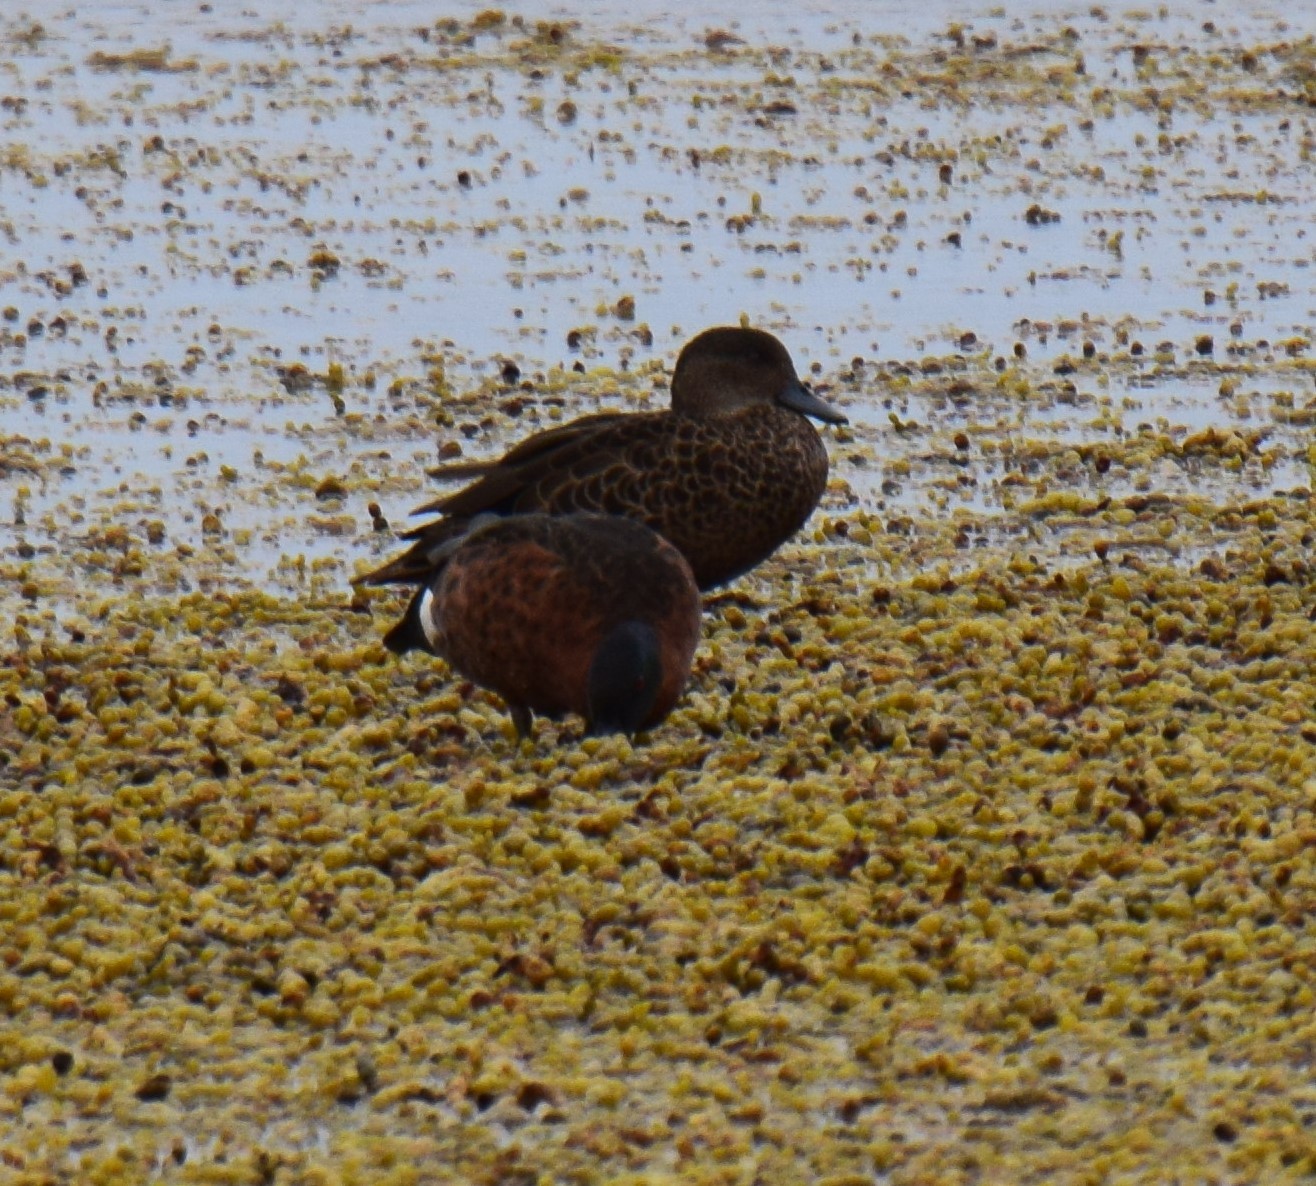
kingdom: Animalia
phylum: Chordata
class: Aves
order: Anseriformes
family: Anatidae
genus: Anas
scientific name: Anas castanea
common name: Chestnut teal
